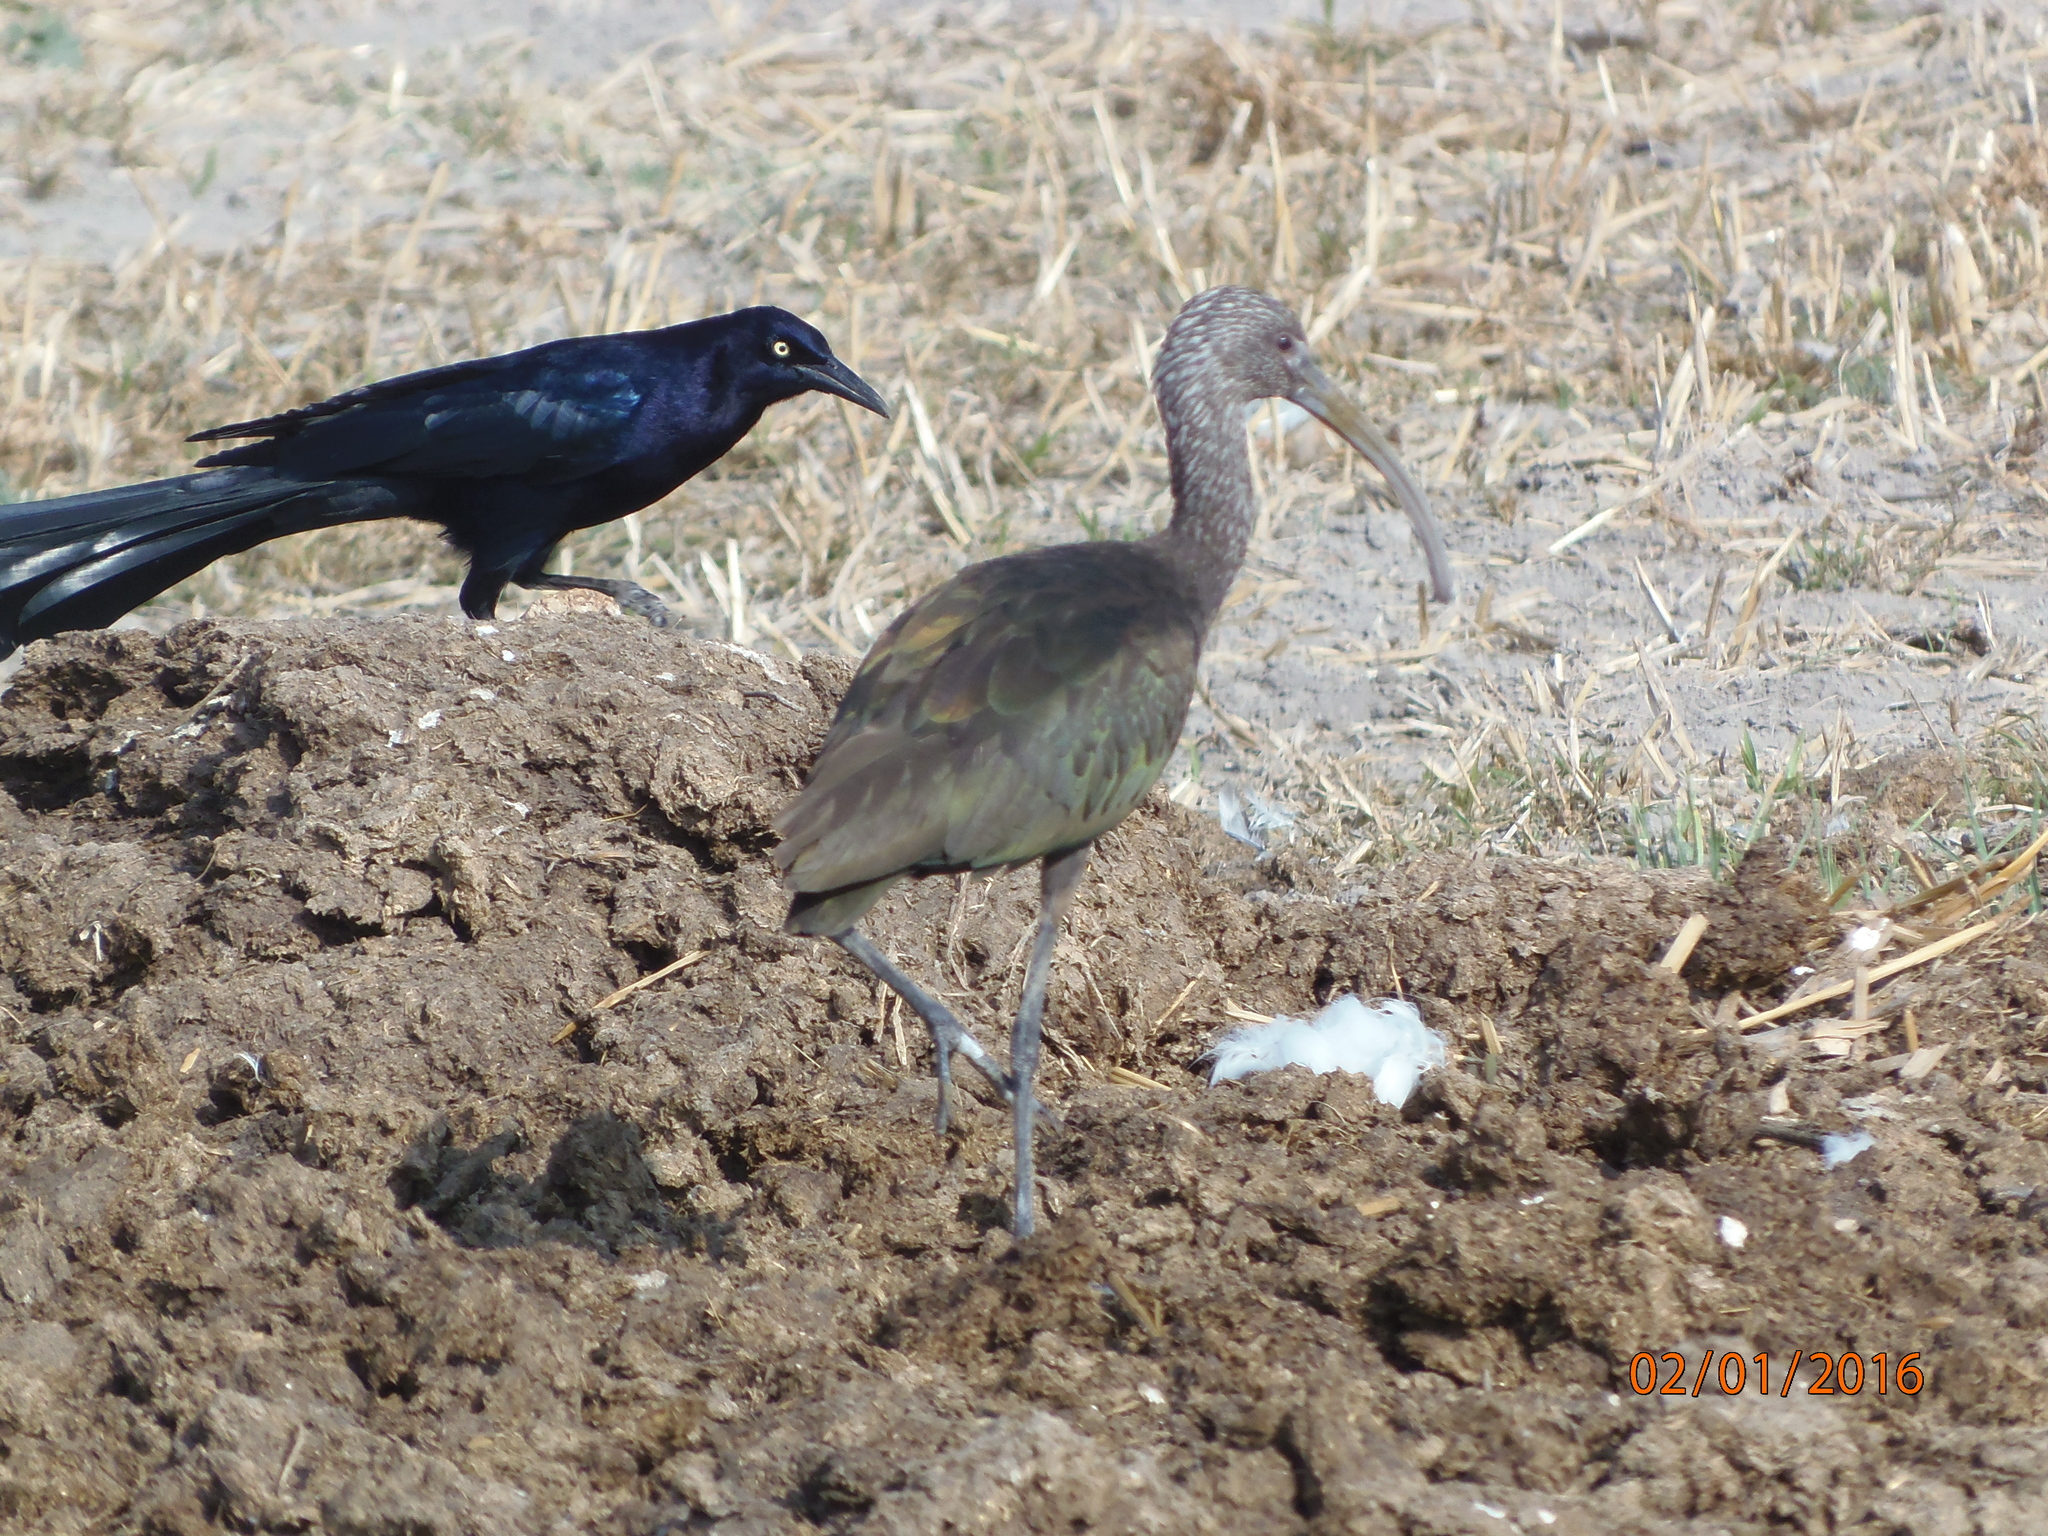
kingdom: Animalia
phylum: Chordata
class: Aves
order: Pelecaniformes
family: Threskiornithidae
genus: Plegadis
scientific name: Plegadis chihi
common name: White-faced ibis
